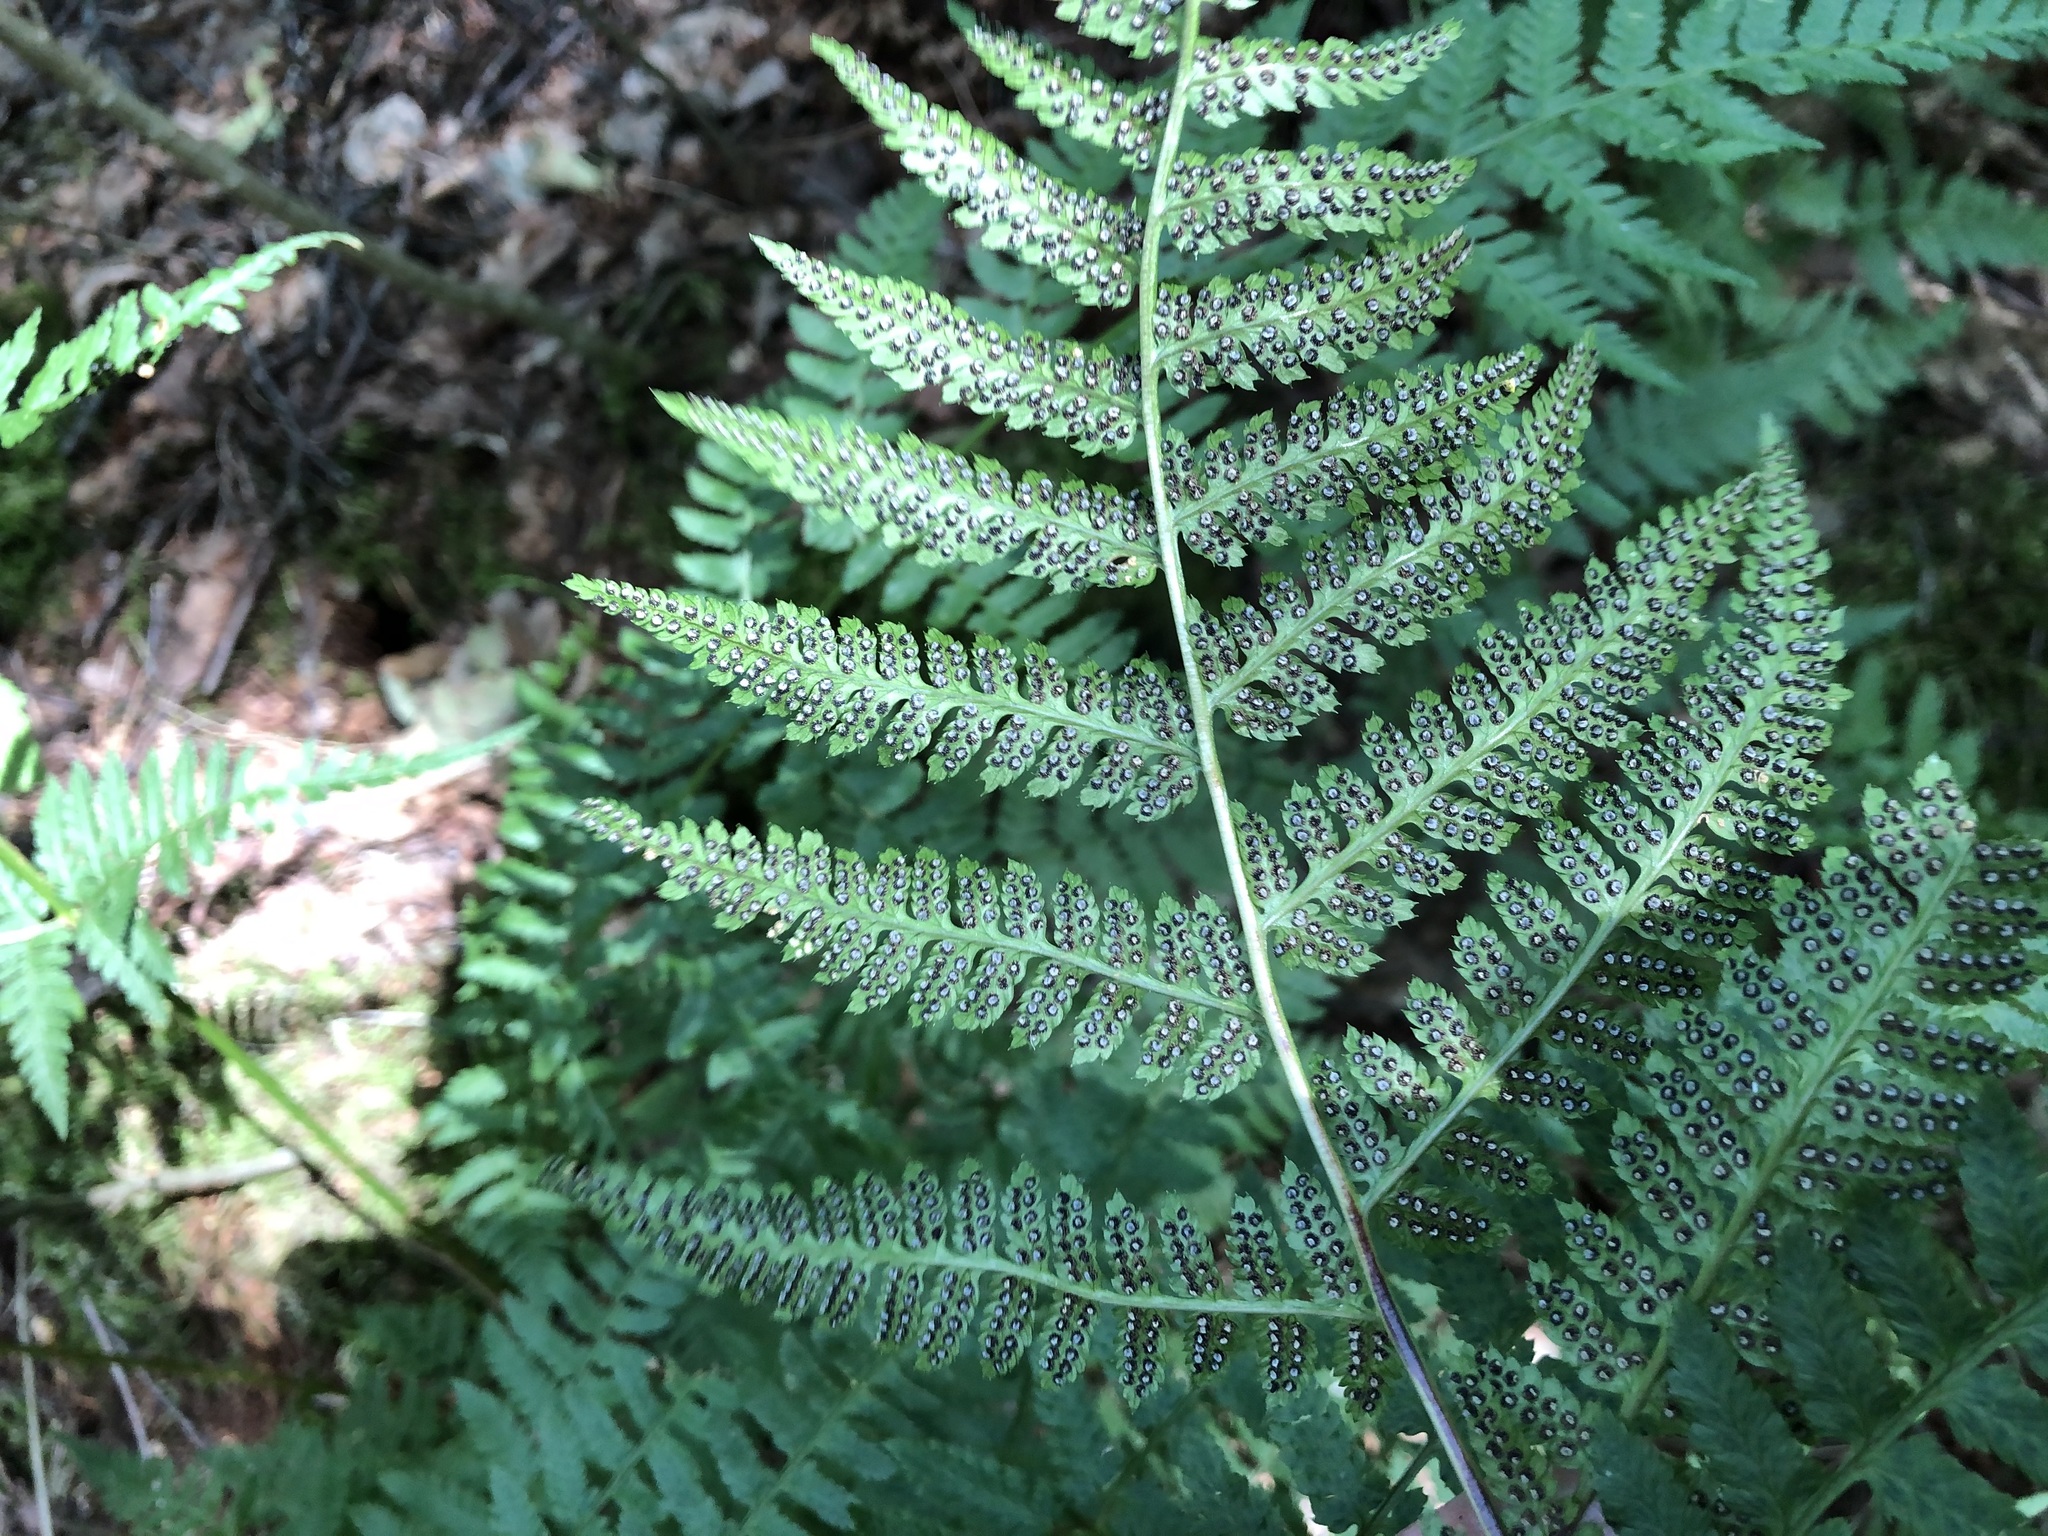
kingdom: Plantae
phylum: Tracheophyta
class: Polypodiopsida
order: Polypodiales
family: Dryopteridaceae
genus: Dryopteris
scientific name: Dryopteris carthusiana
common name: Narrow buckler-fern
